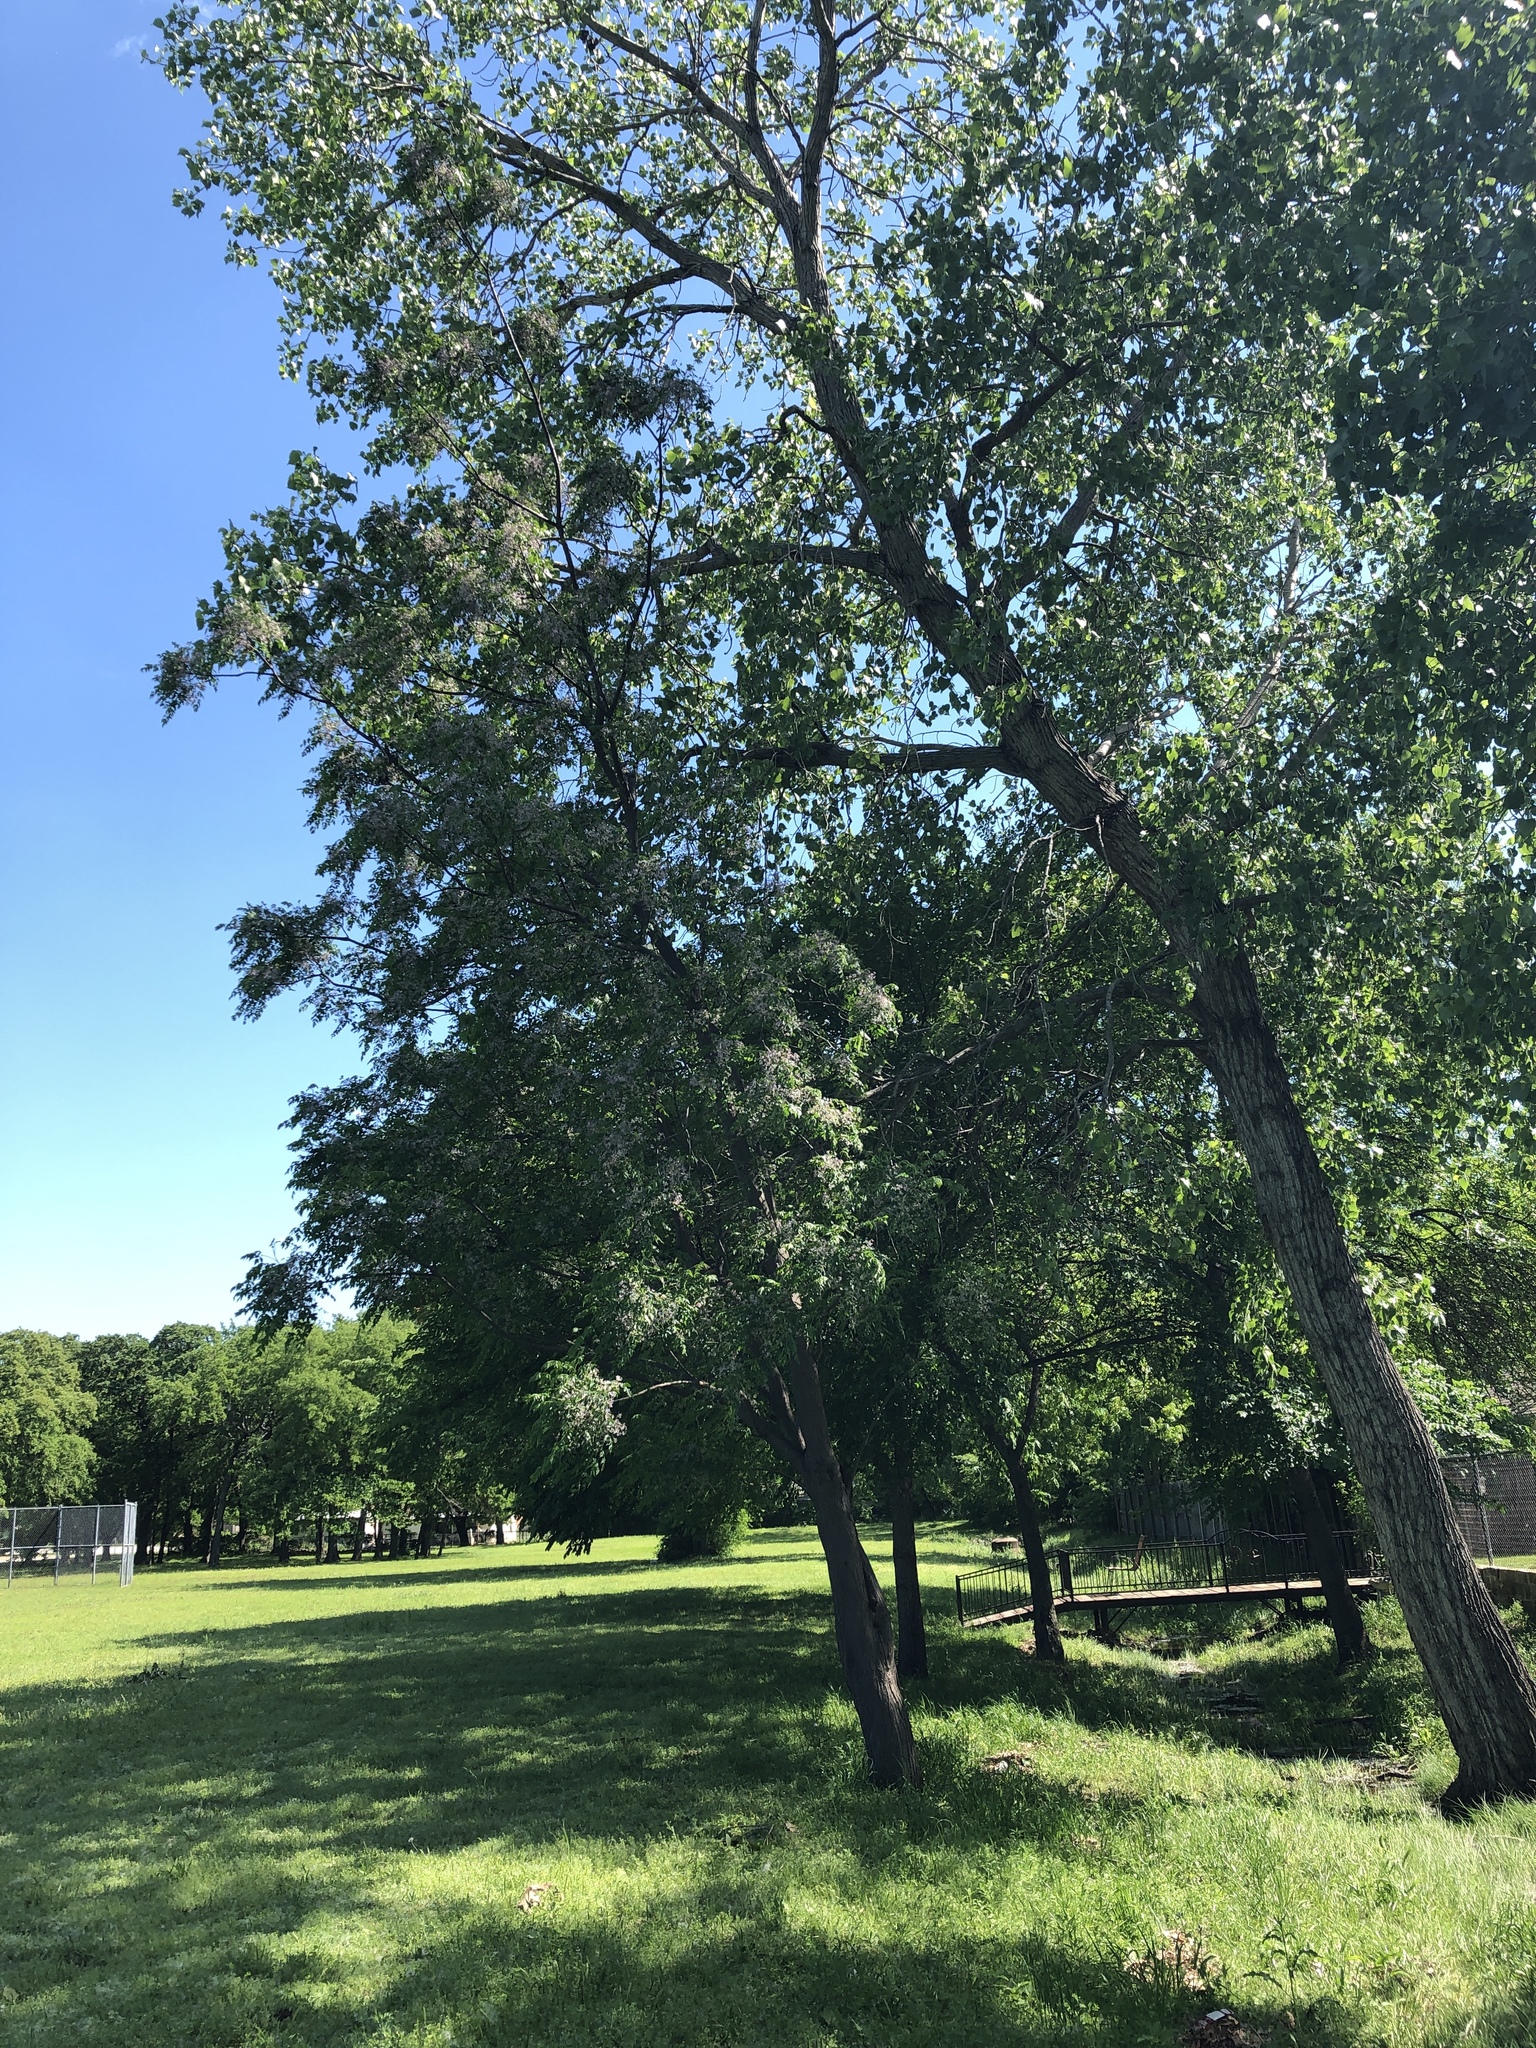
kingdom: Plantae
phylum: Tracheophyta
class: Magnoliopsida
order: Sapindales
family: Meliaceae
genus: Melia
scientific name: Melia azedarach
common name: Chinaberrytree
